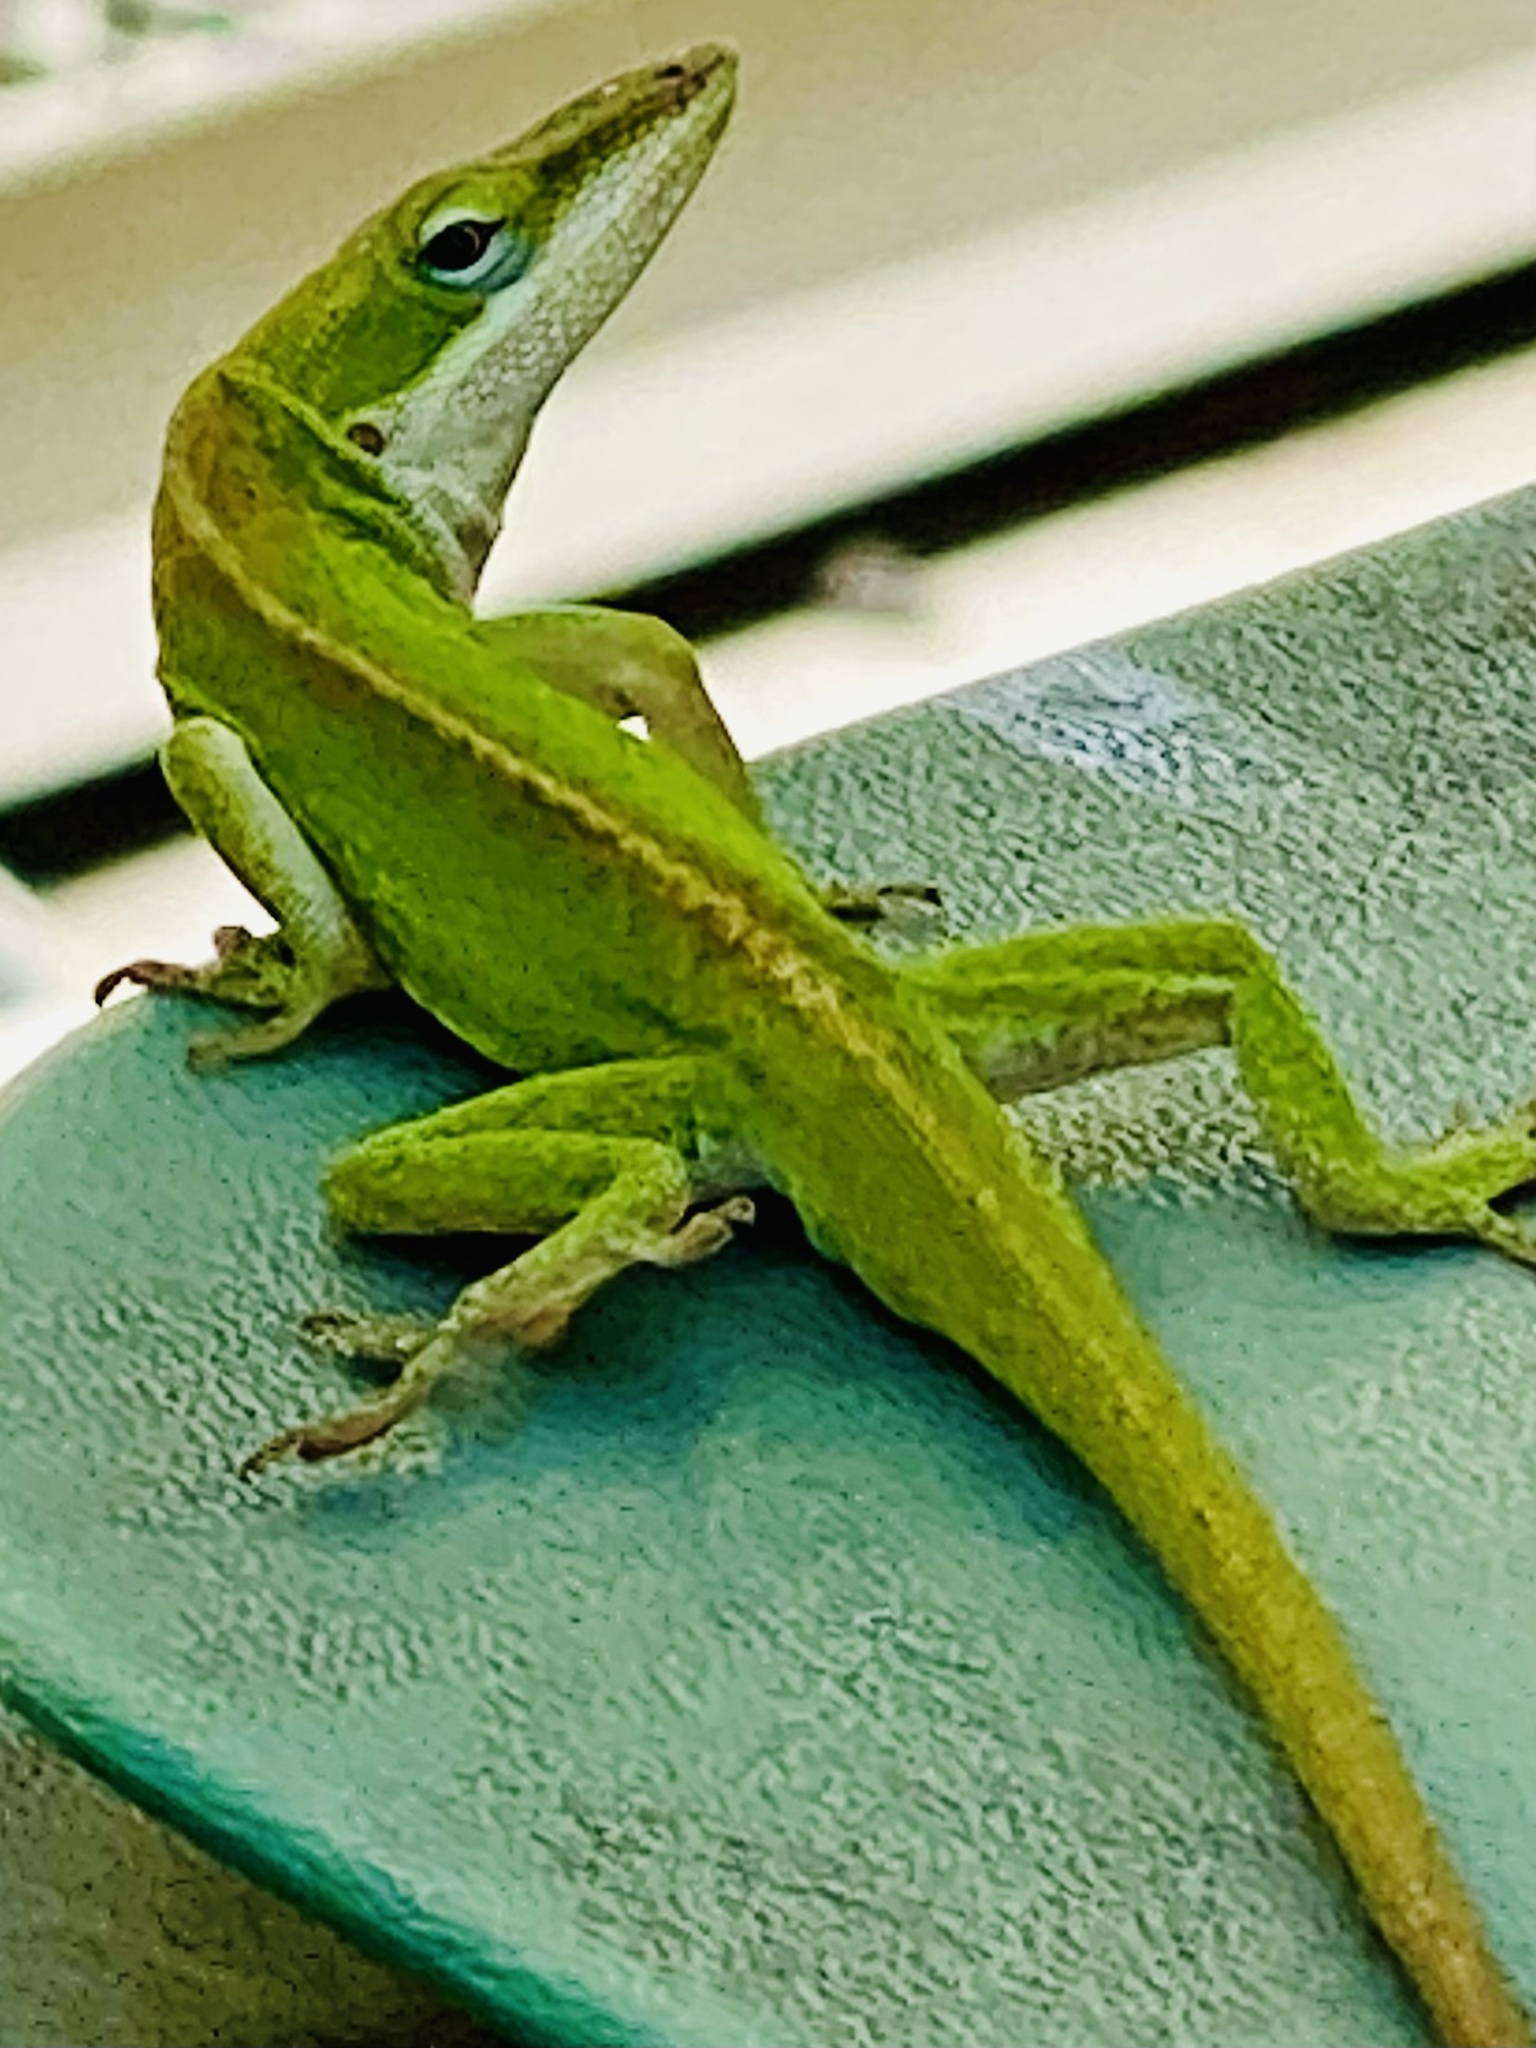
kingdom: Animalia
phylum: Chordata
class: Squamata
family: Dactyloidae
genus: Anolis
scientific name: Anolis carolinensis
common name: Green anole
